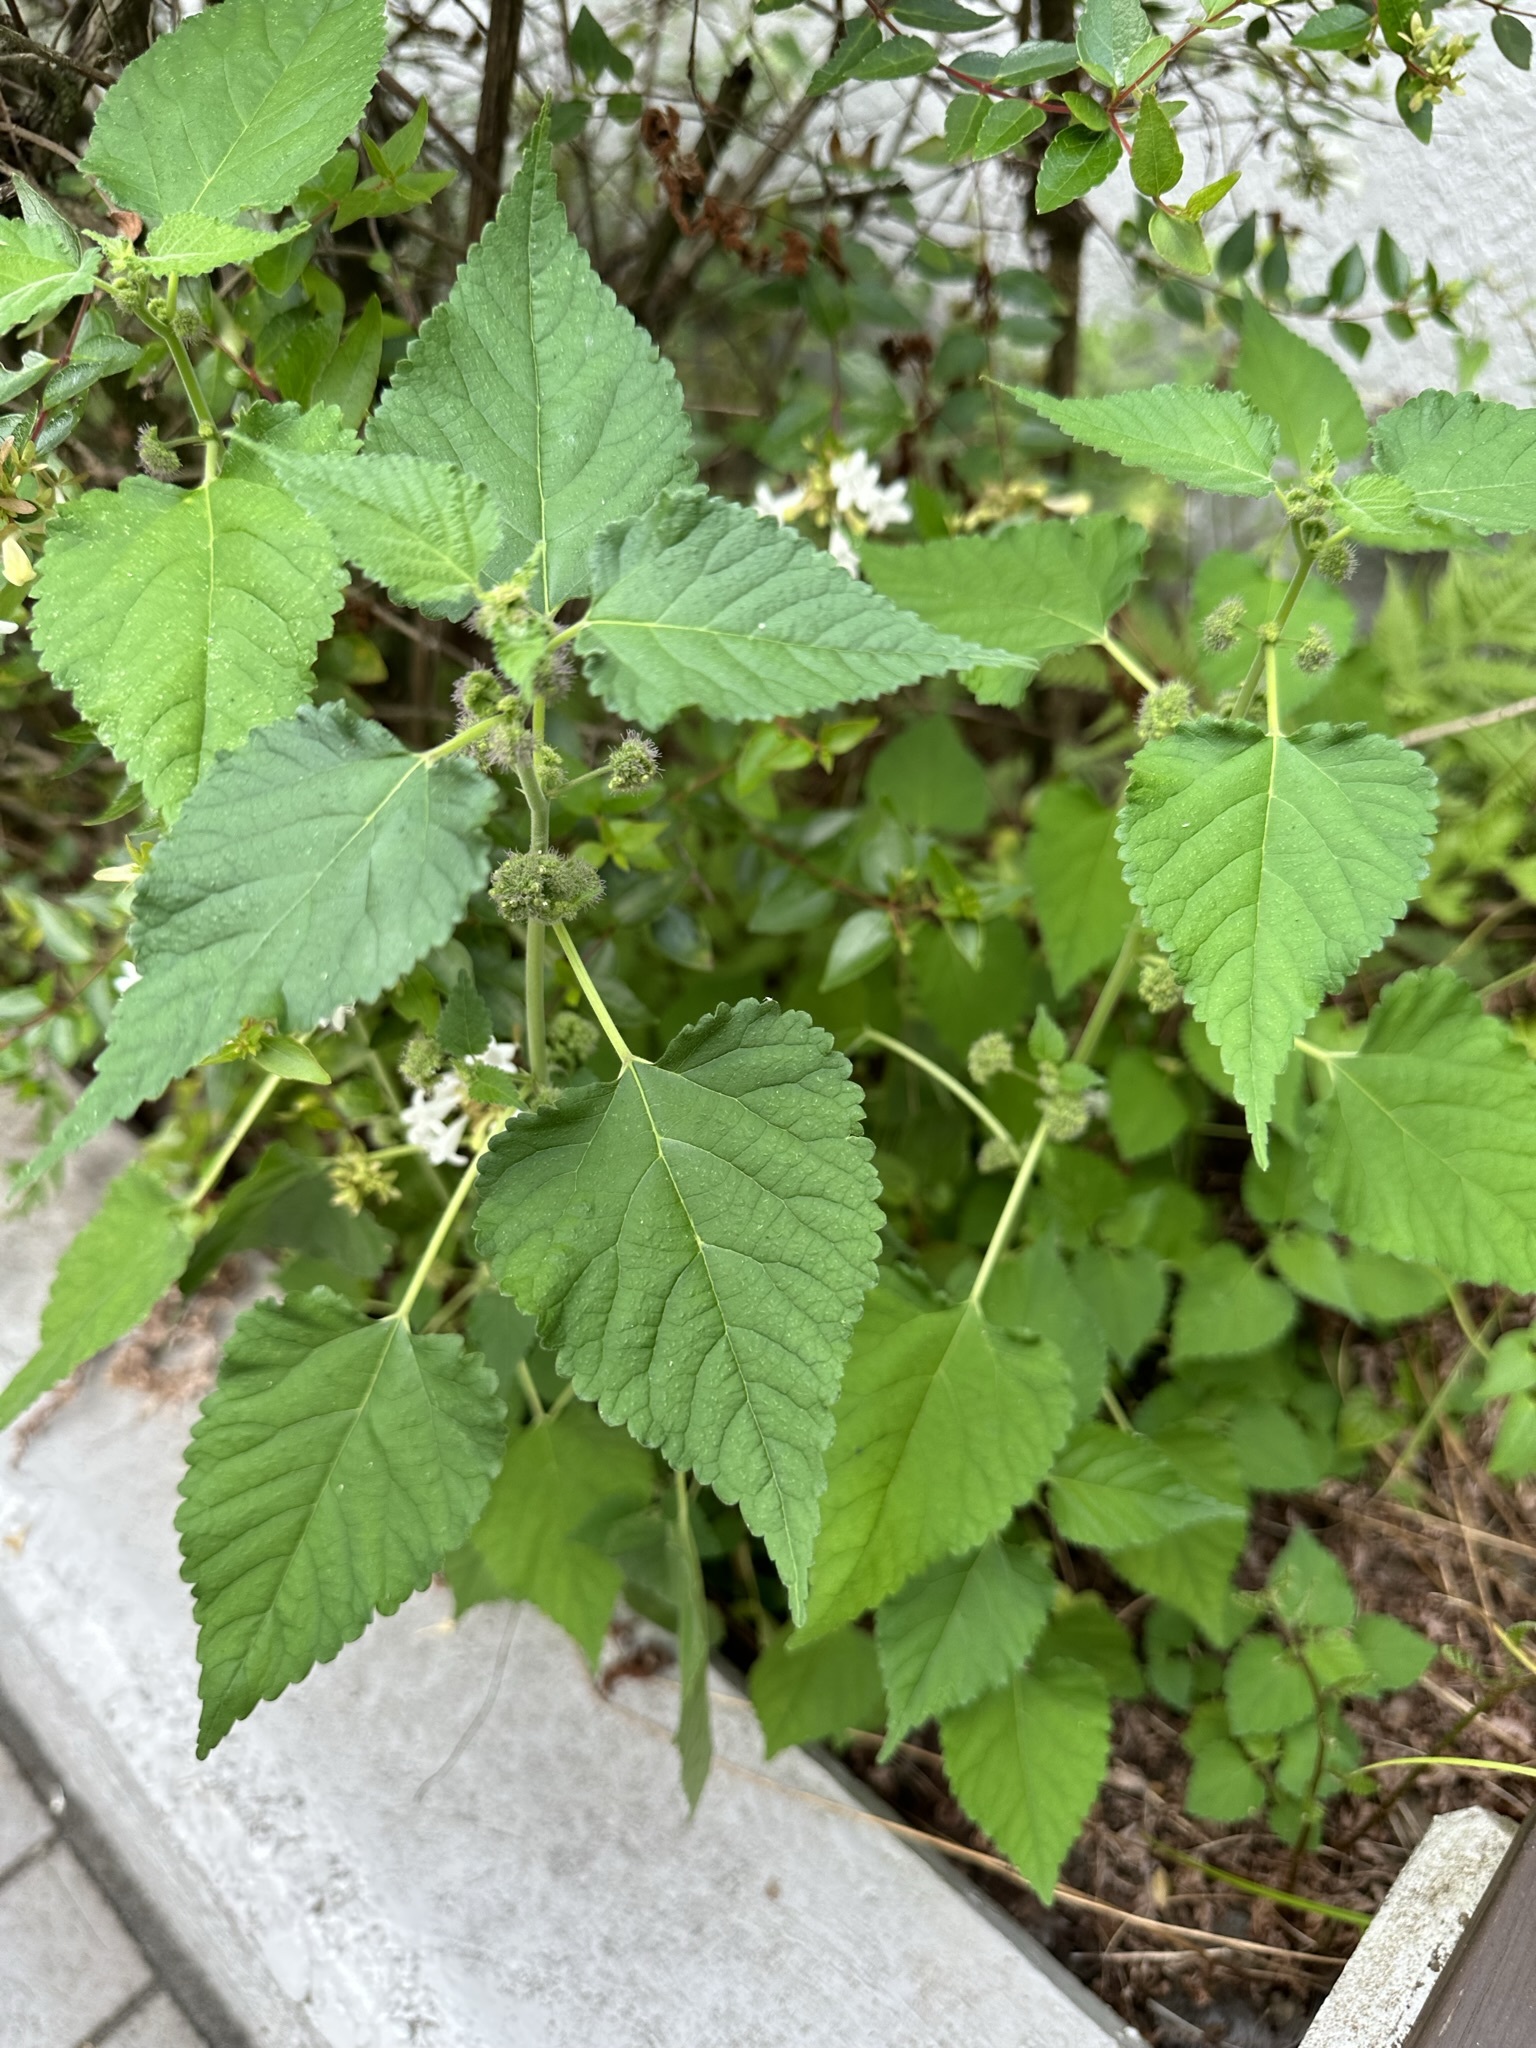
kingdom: Plantae
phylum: Tracheophyta
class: Magnoliopsida
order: Rosales
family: Moraceae
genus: Fatoua
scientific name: Fatoua villosa
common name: Hairy crabweed
